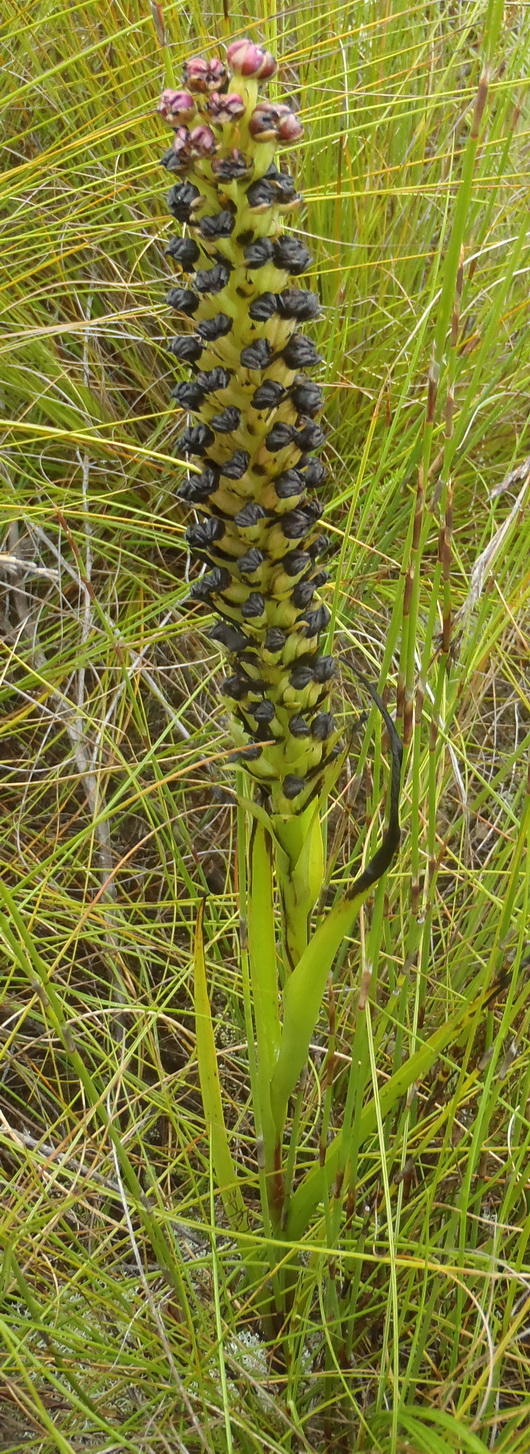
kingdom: Plantae
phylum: Tracheophyta
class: Liliopsida
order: Asparagales
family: Orchidaceae
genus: Evotella
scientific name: Evotella carnosa
